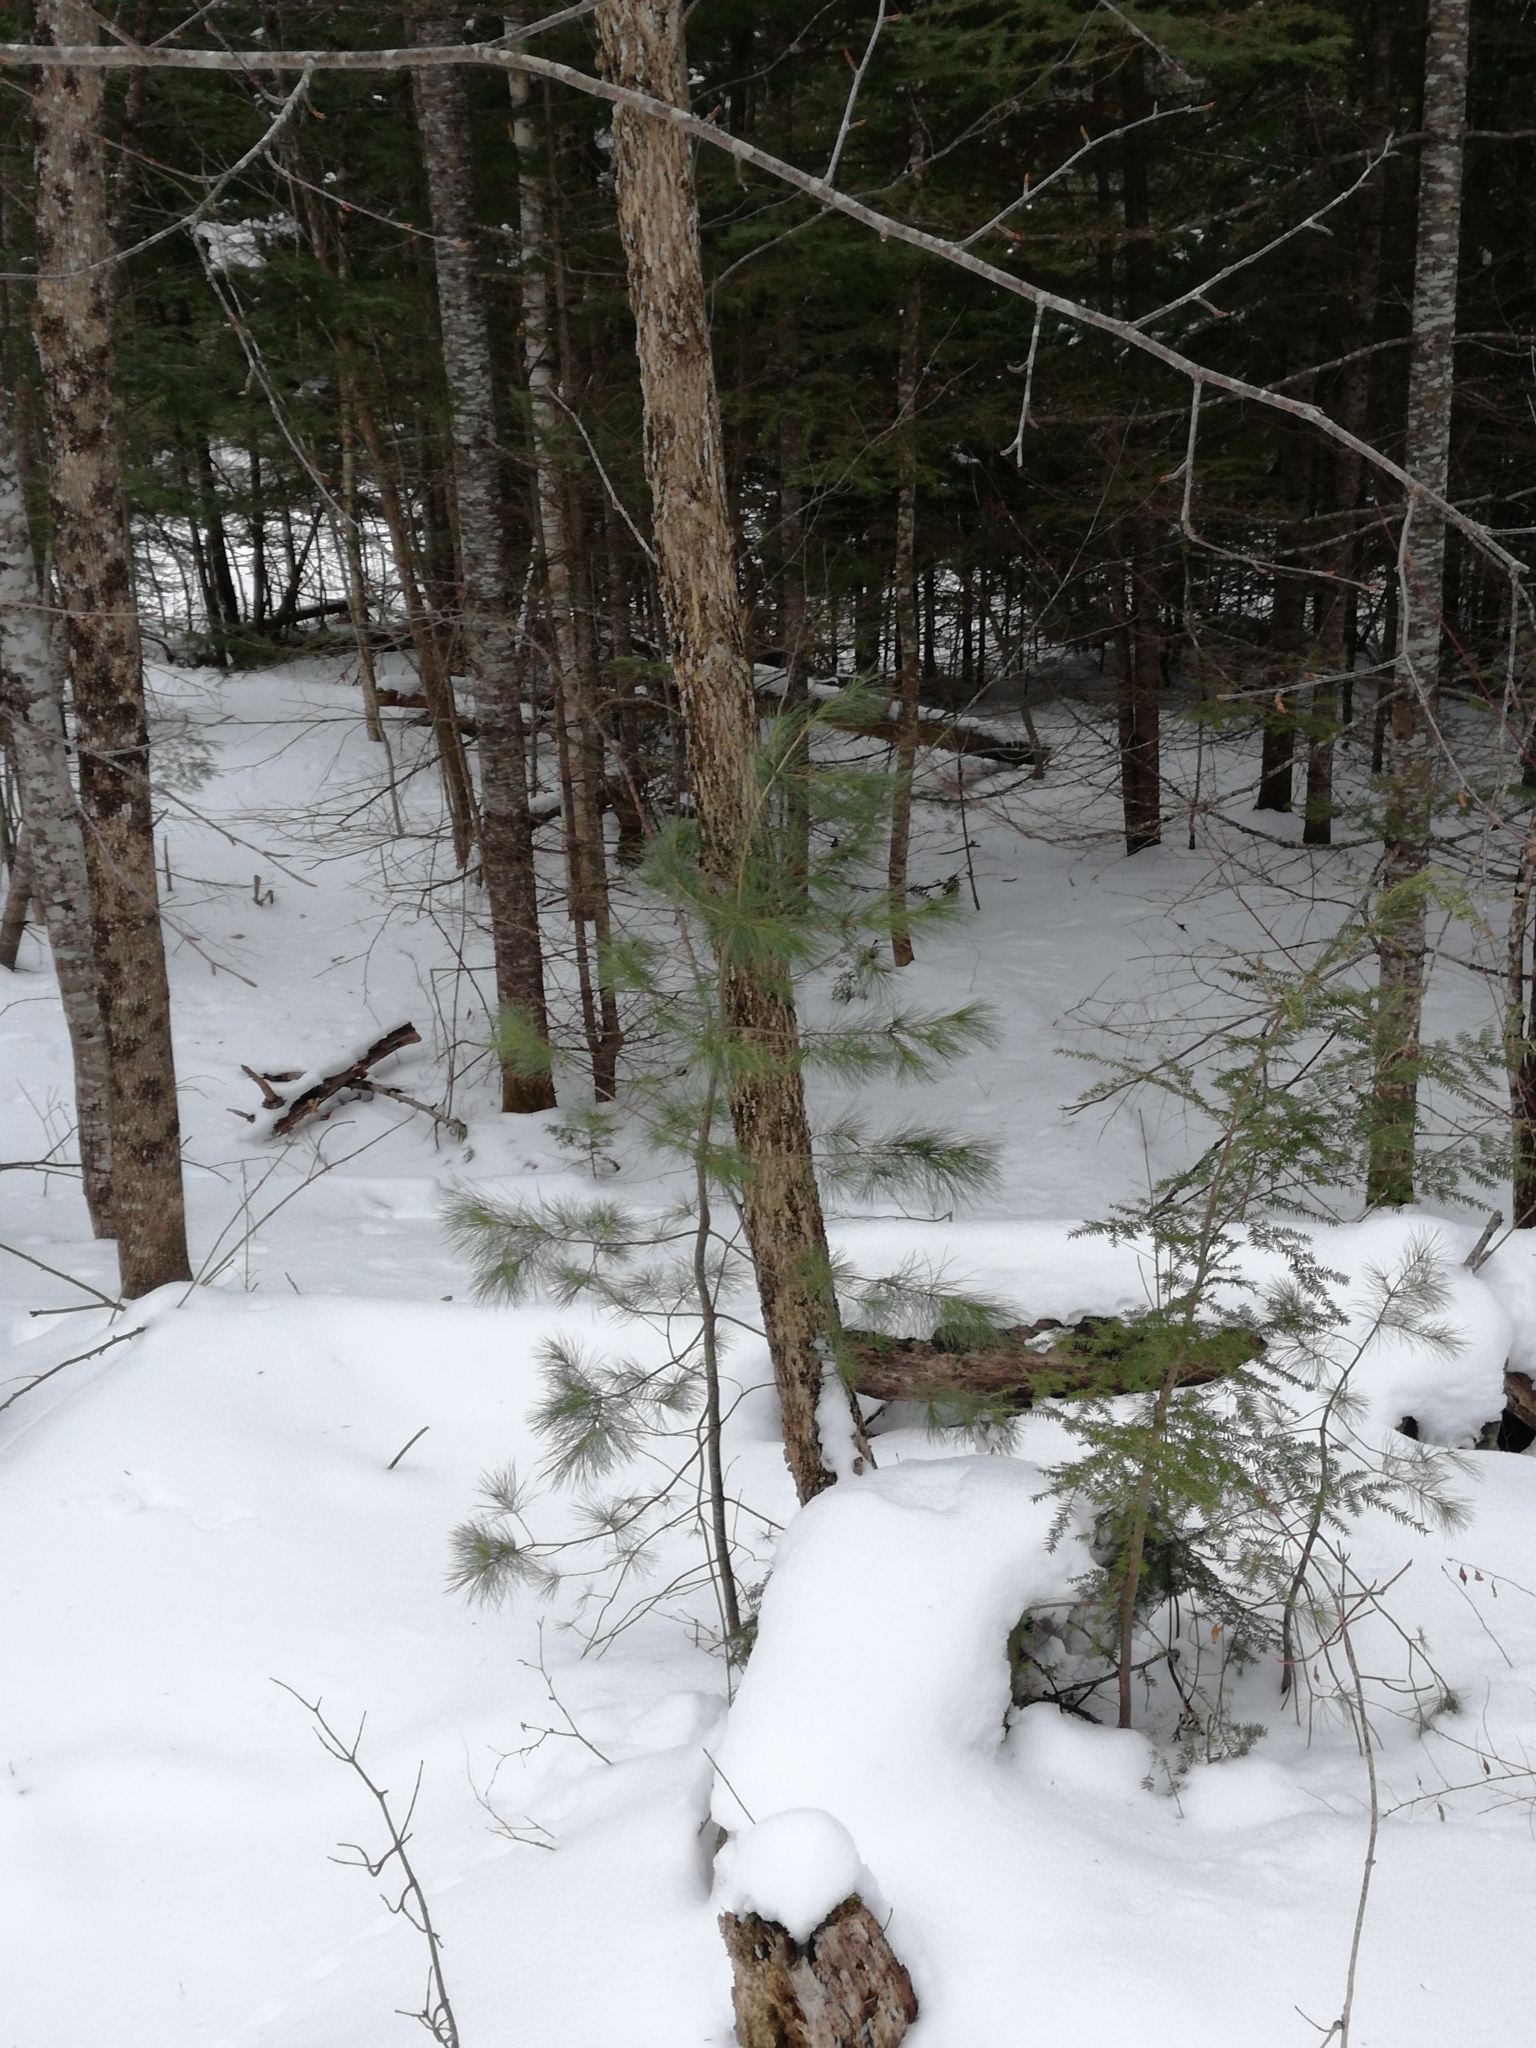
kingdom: Plantae
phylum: Tracheophyta
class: Pinopsida
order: Pinales
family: Pinaceae
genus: Pinus
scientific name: Pinus strobus
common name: Weymouth pine
